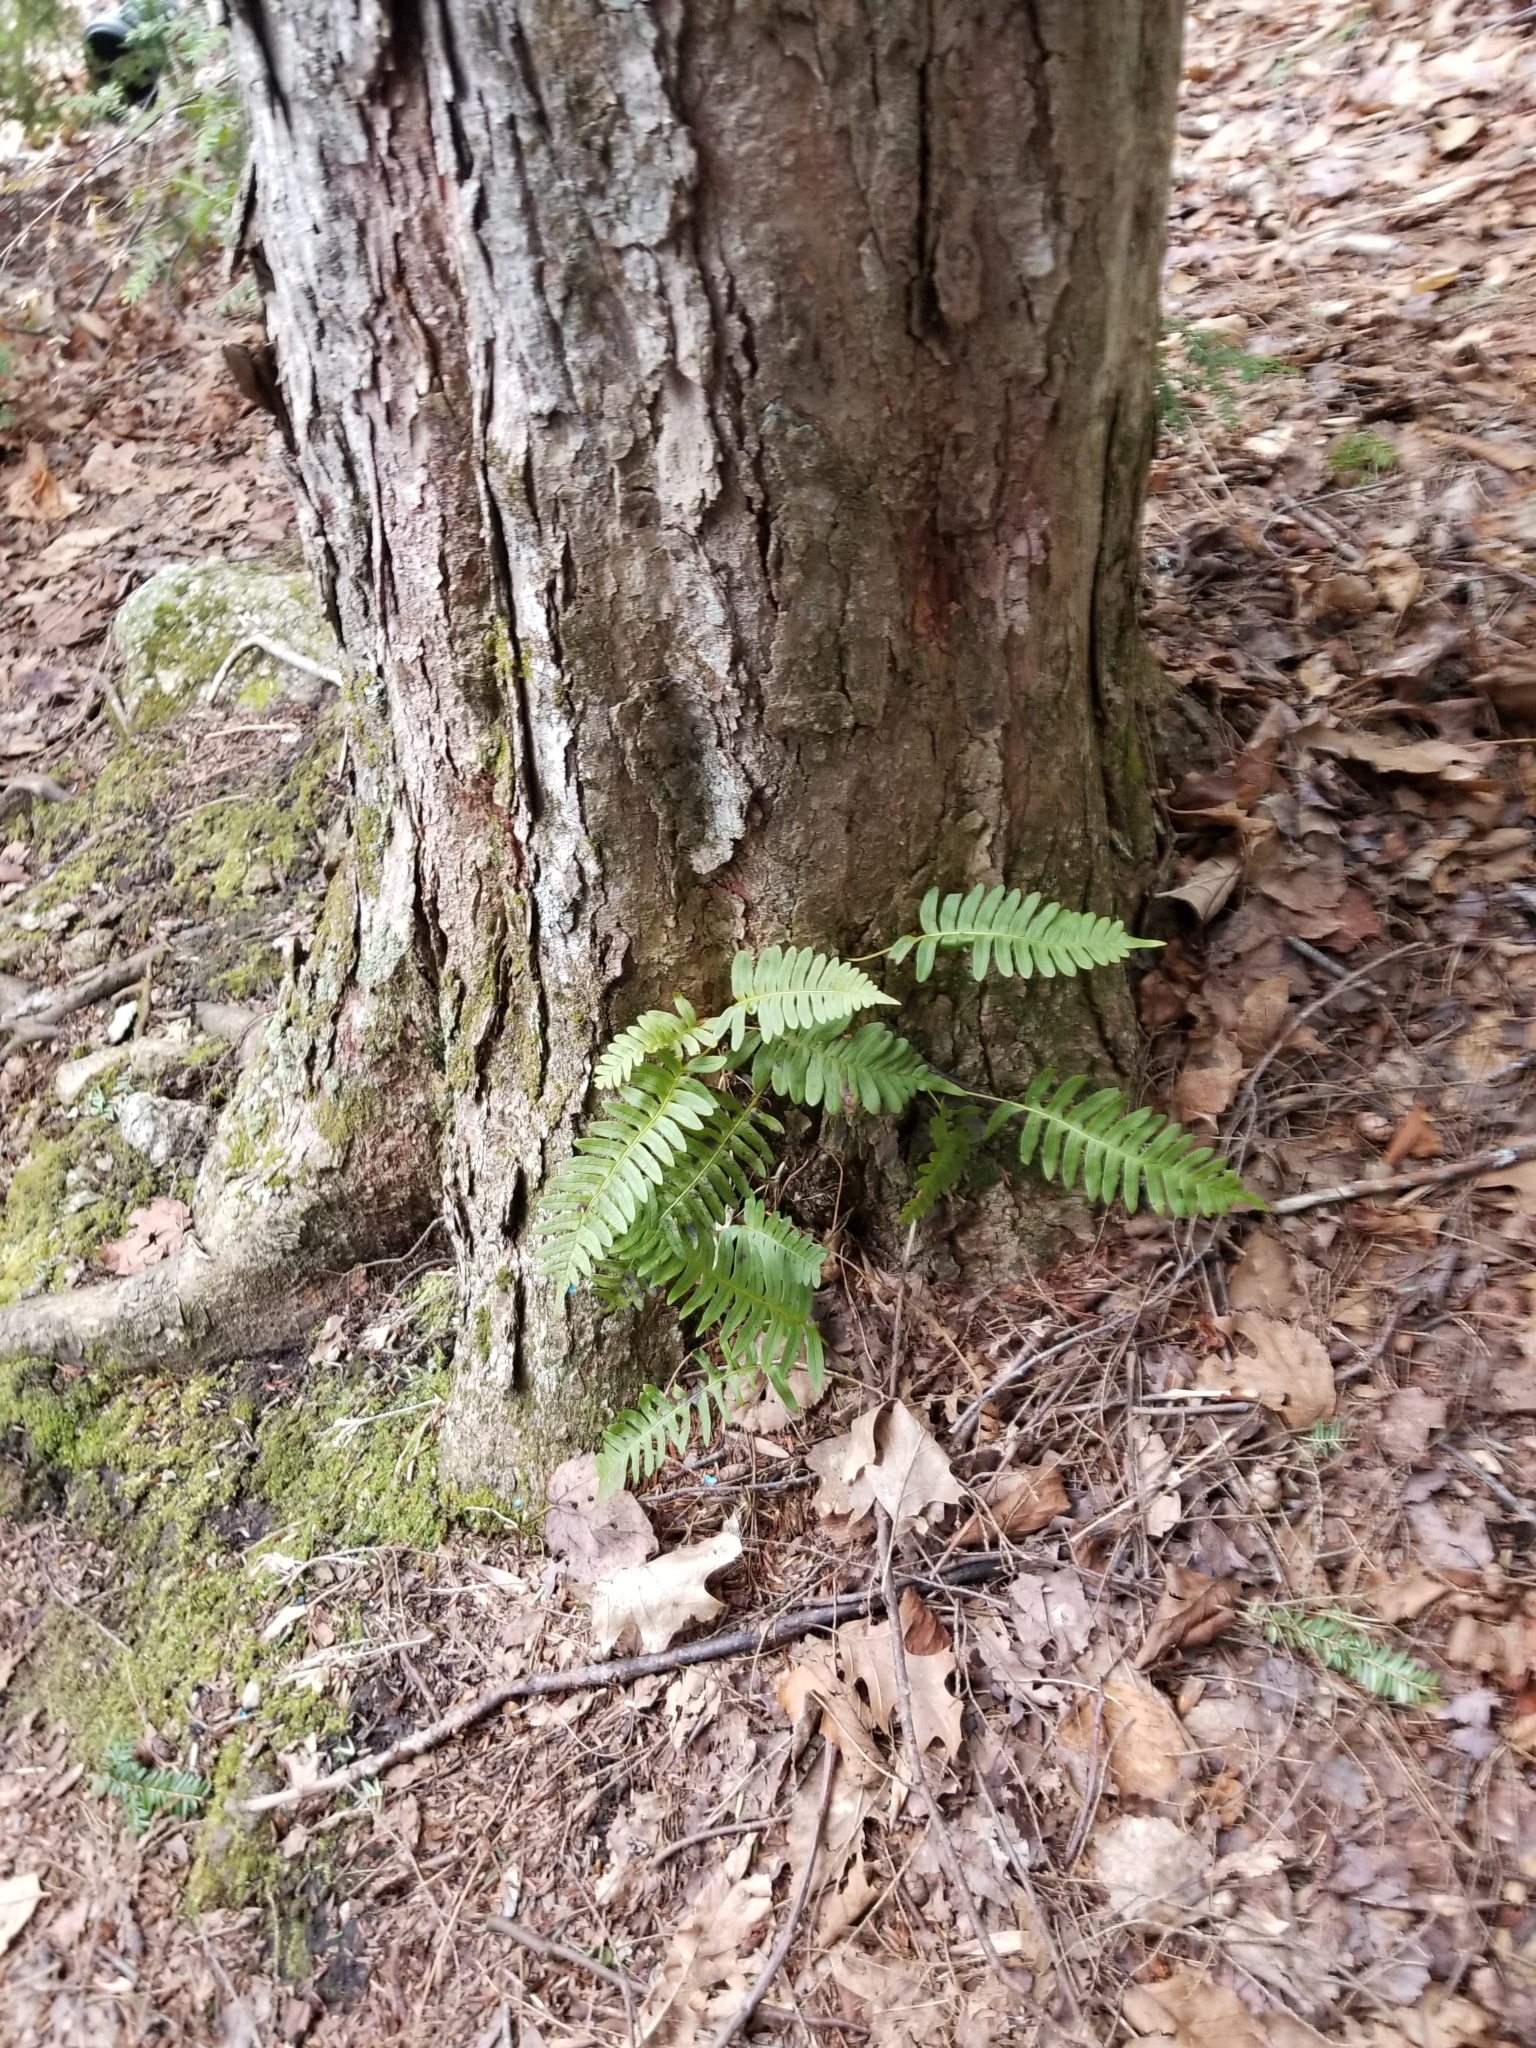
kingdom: Plantae
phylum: Tracheophyta
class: Polypodiopsida
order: Polypodiales
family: Polypodiaceae
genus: Polypodium
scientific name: Polypodium appalachianum
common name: Appalachian polypody
